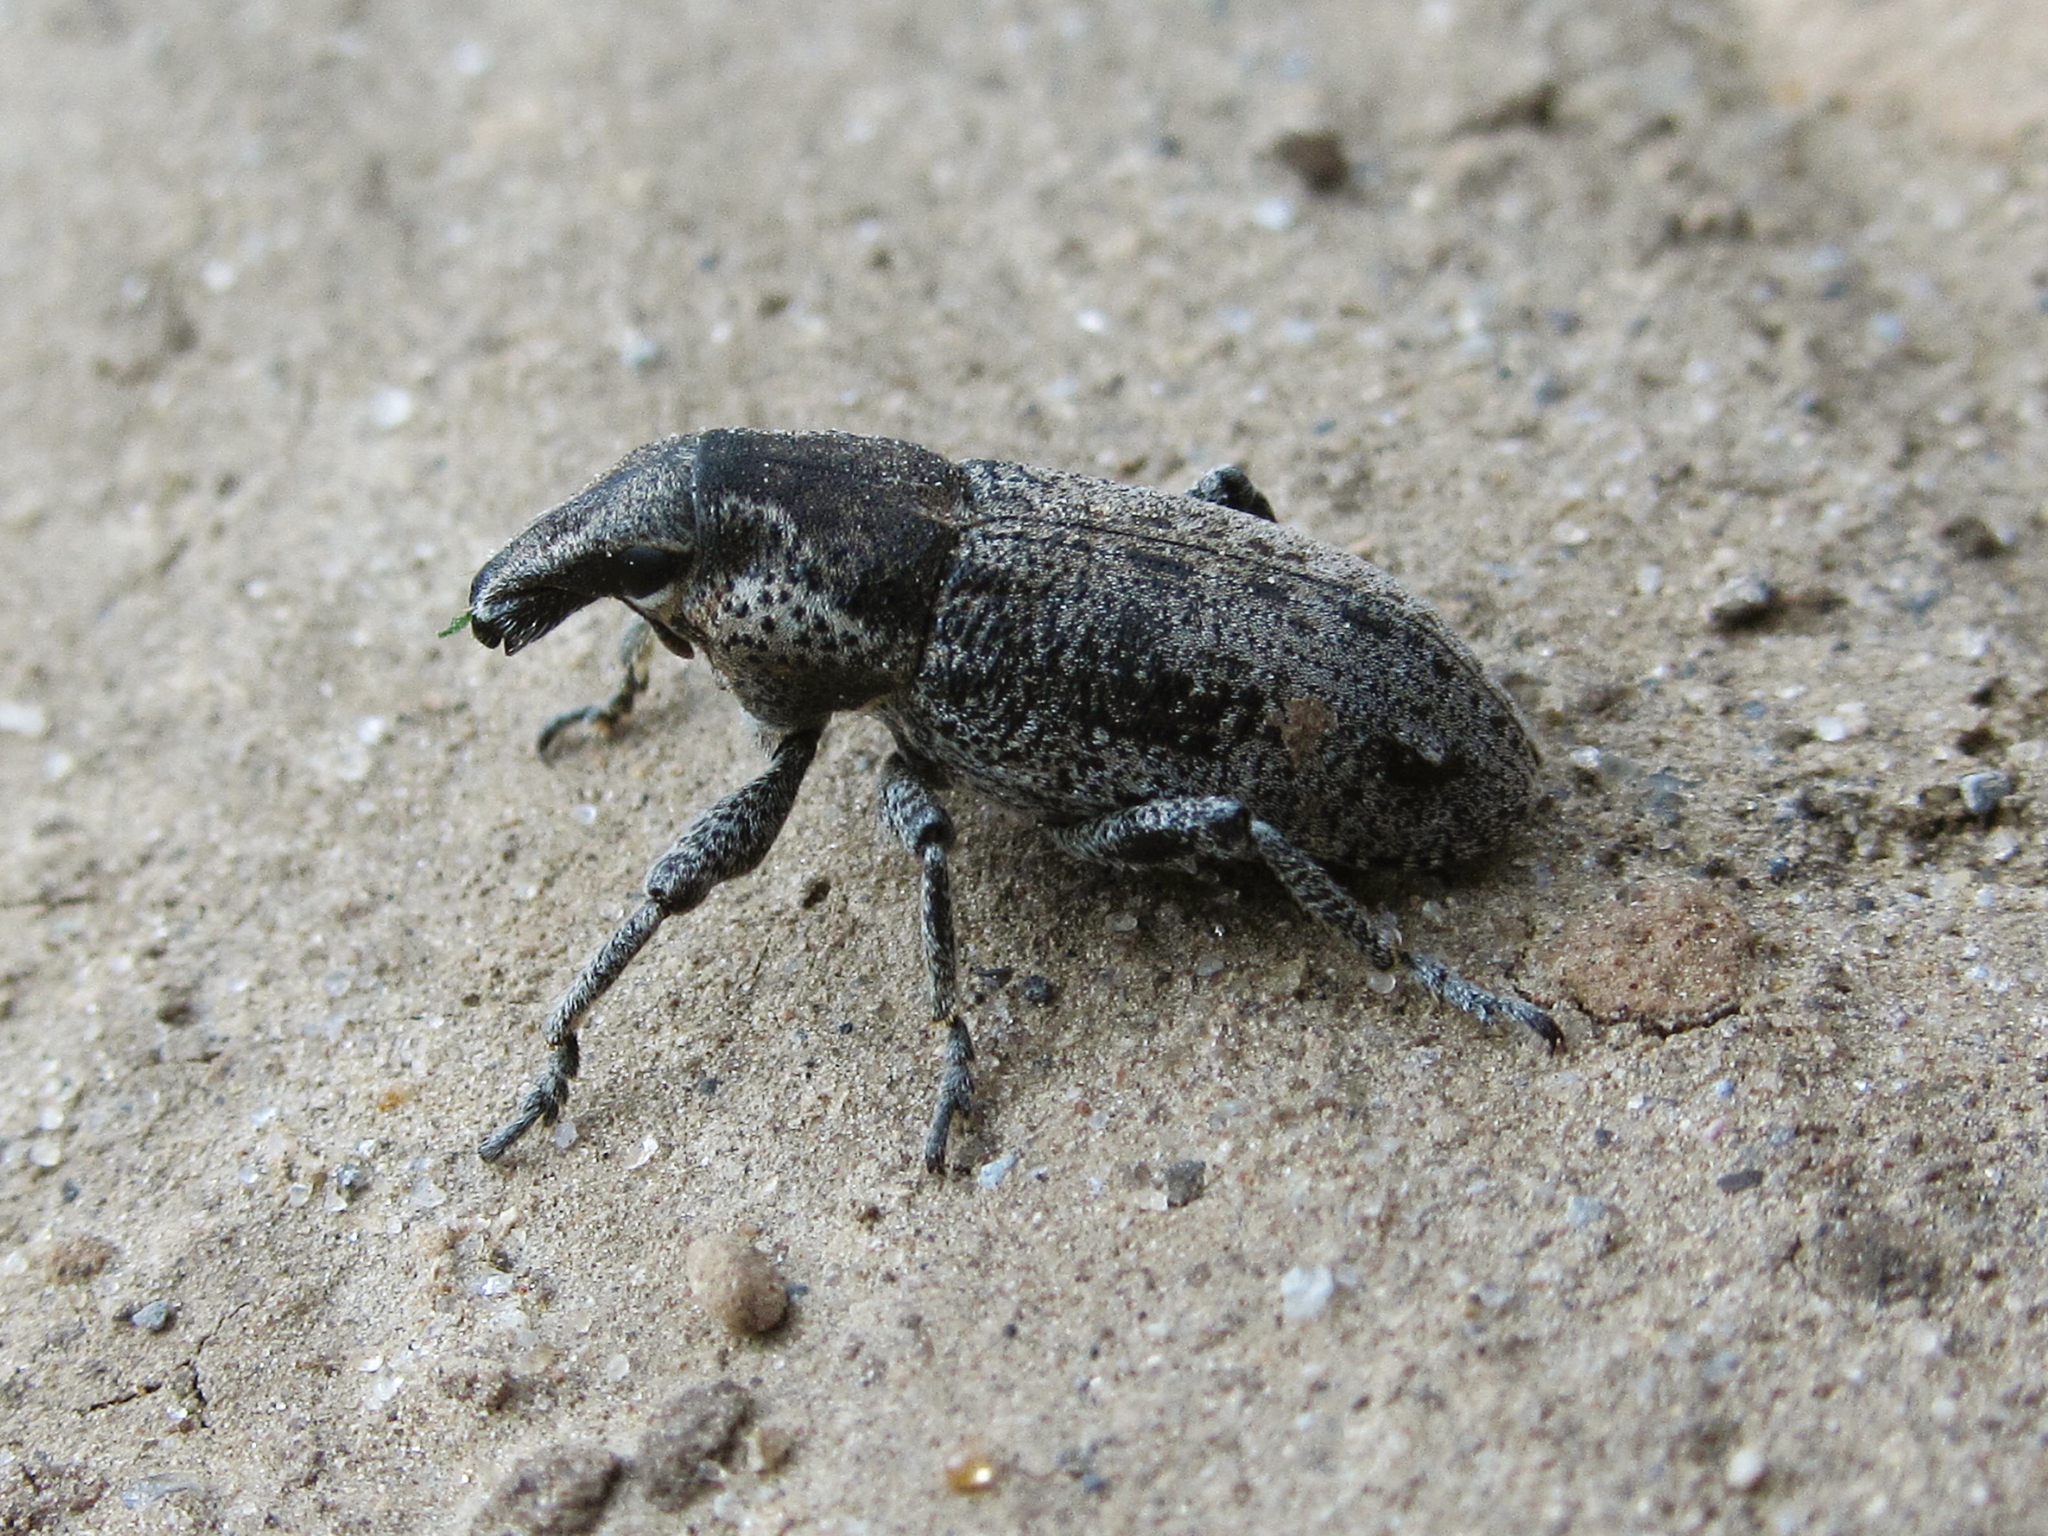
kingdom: Animalia
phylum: Arthropoda
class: Insecta
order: Coleoptera
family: Curculionidae
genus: Maximus
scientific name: Maximus strabus
